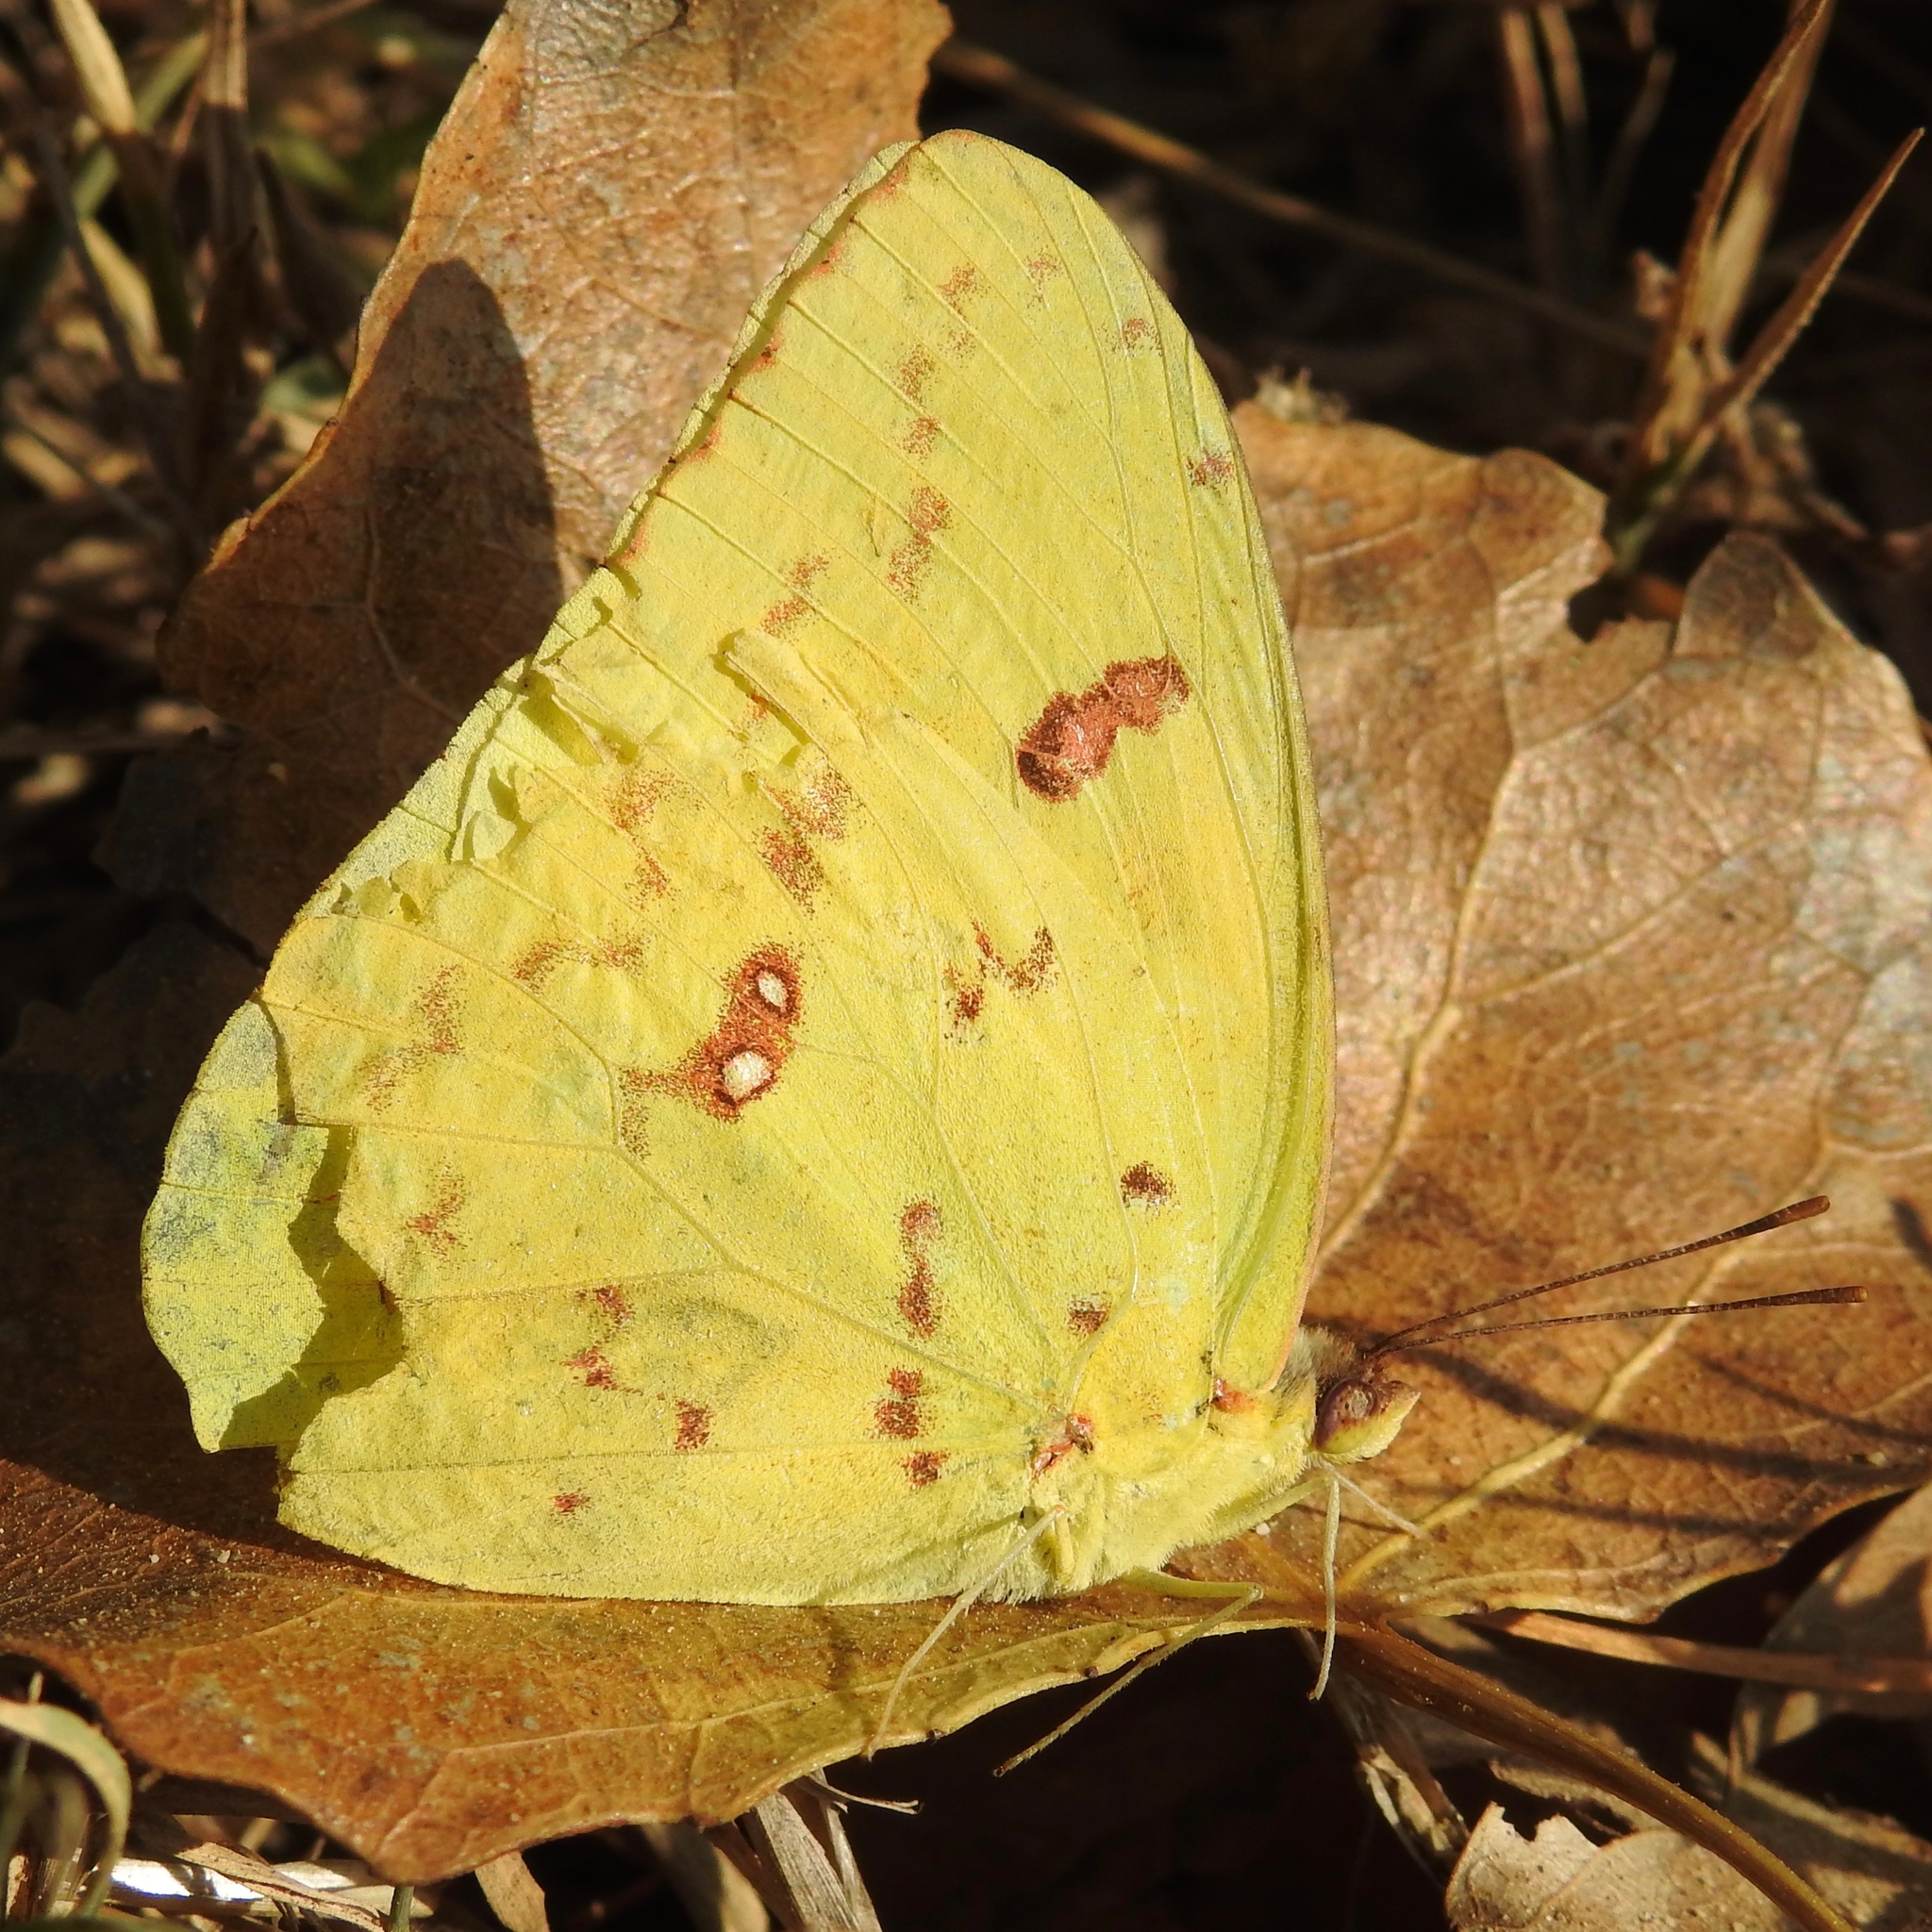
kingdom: Animalia
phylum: Arthropoda
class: Insecta
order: Lepidoptera
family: Pieridae
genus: Phoebis
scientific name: Phoebis sennae
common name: Cloudless sulphur
